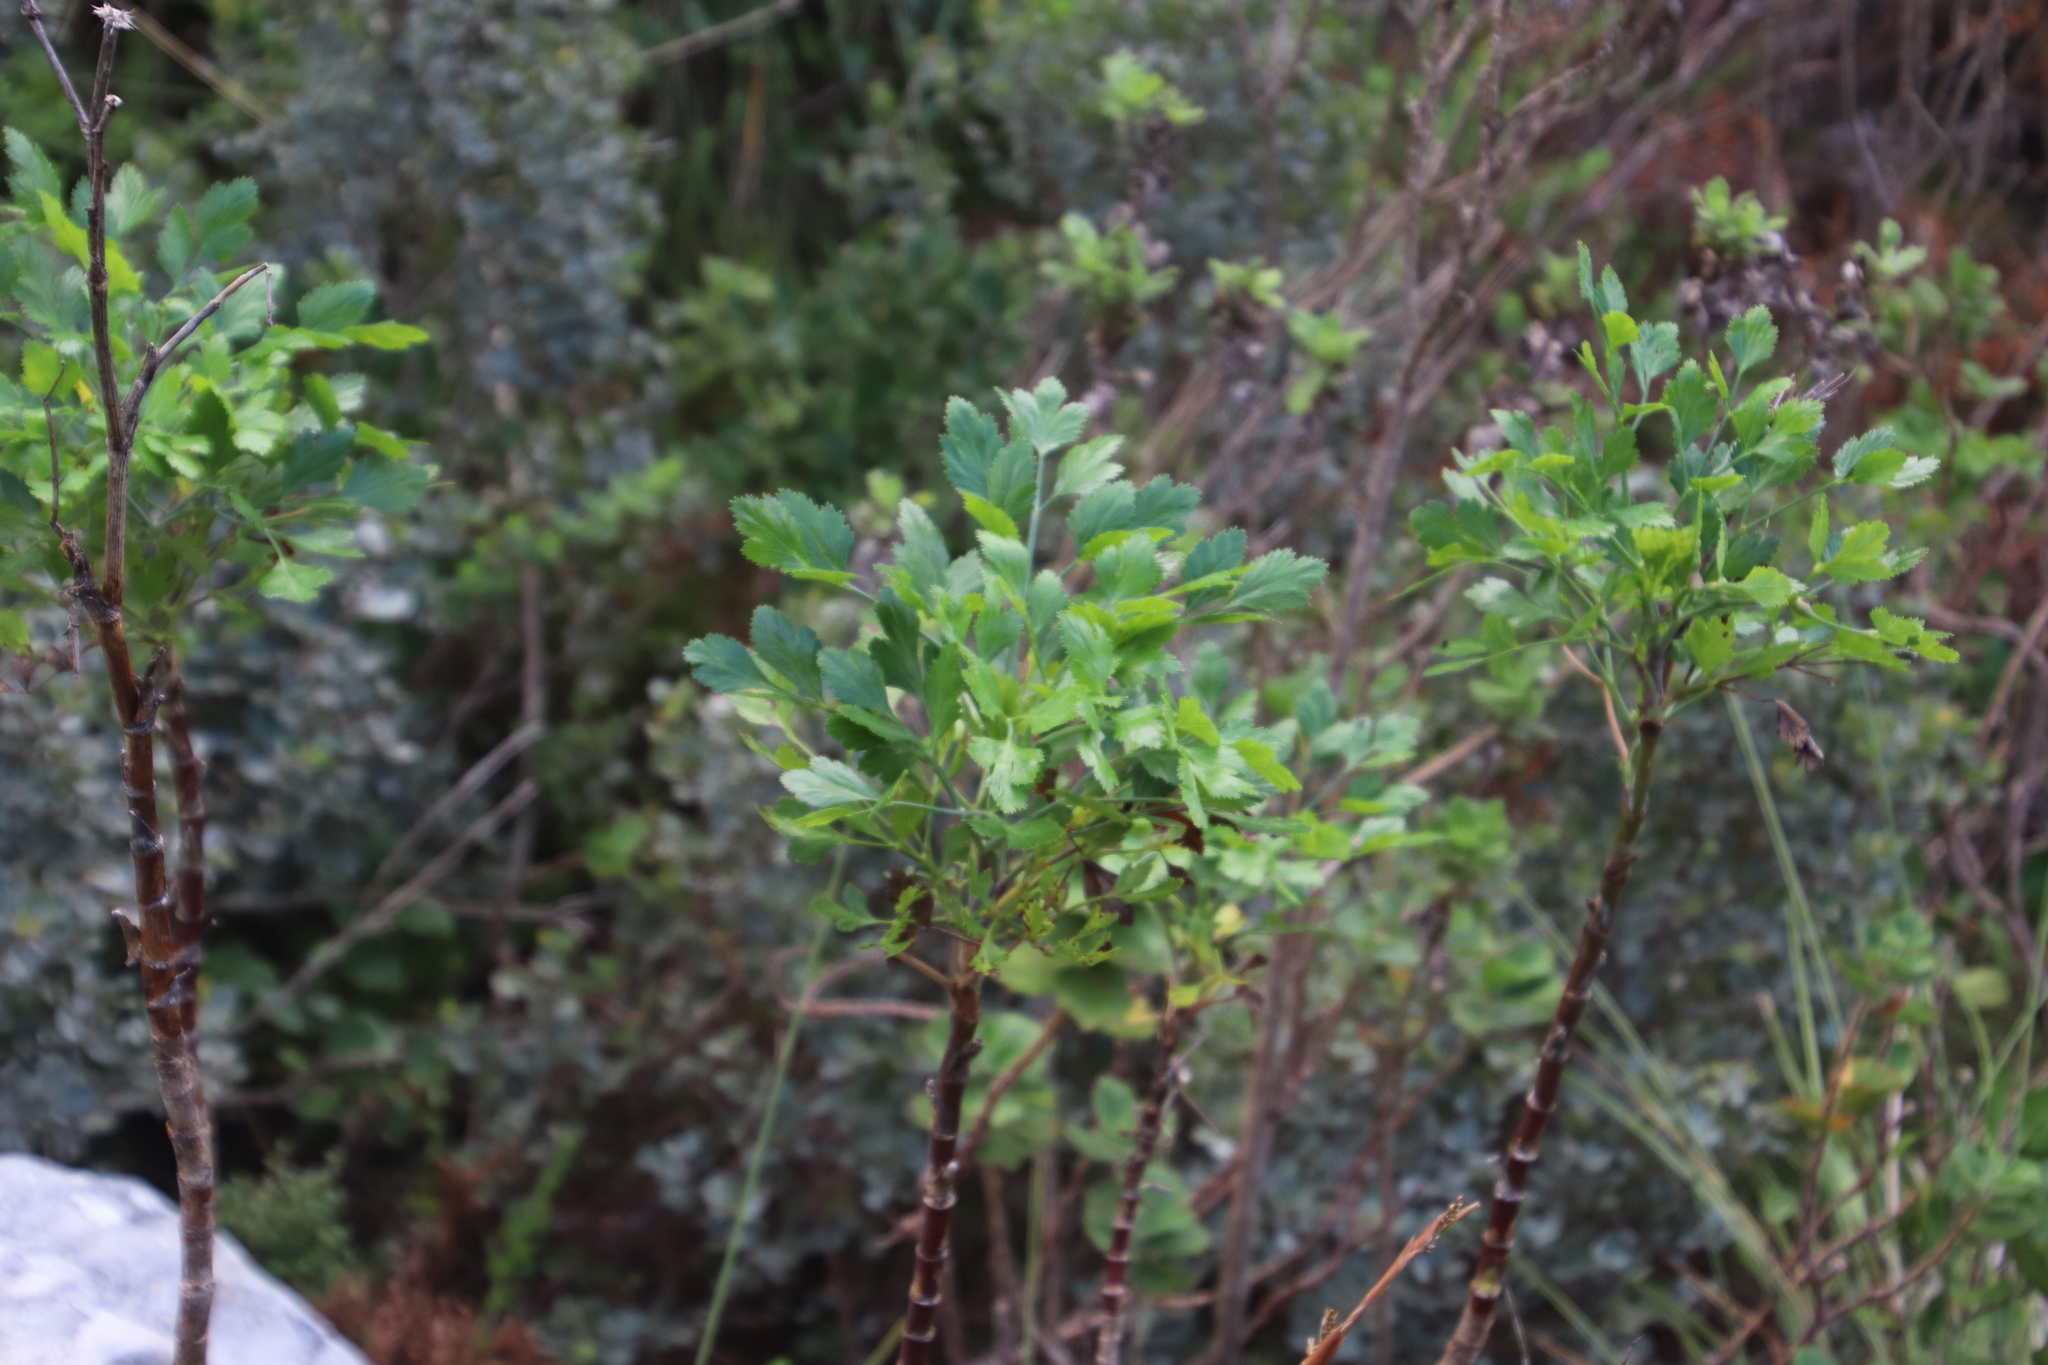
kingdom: Plantae
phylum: Tracheophyta
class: Magnoliopsida
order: Apiales
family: Apiaceae
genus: Notobubon
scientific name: Notobubon galbanum
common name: Blisterbush
